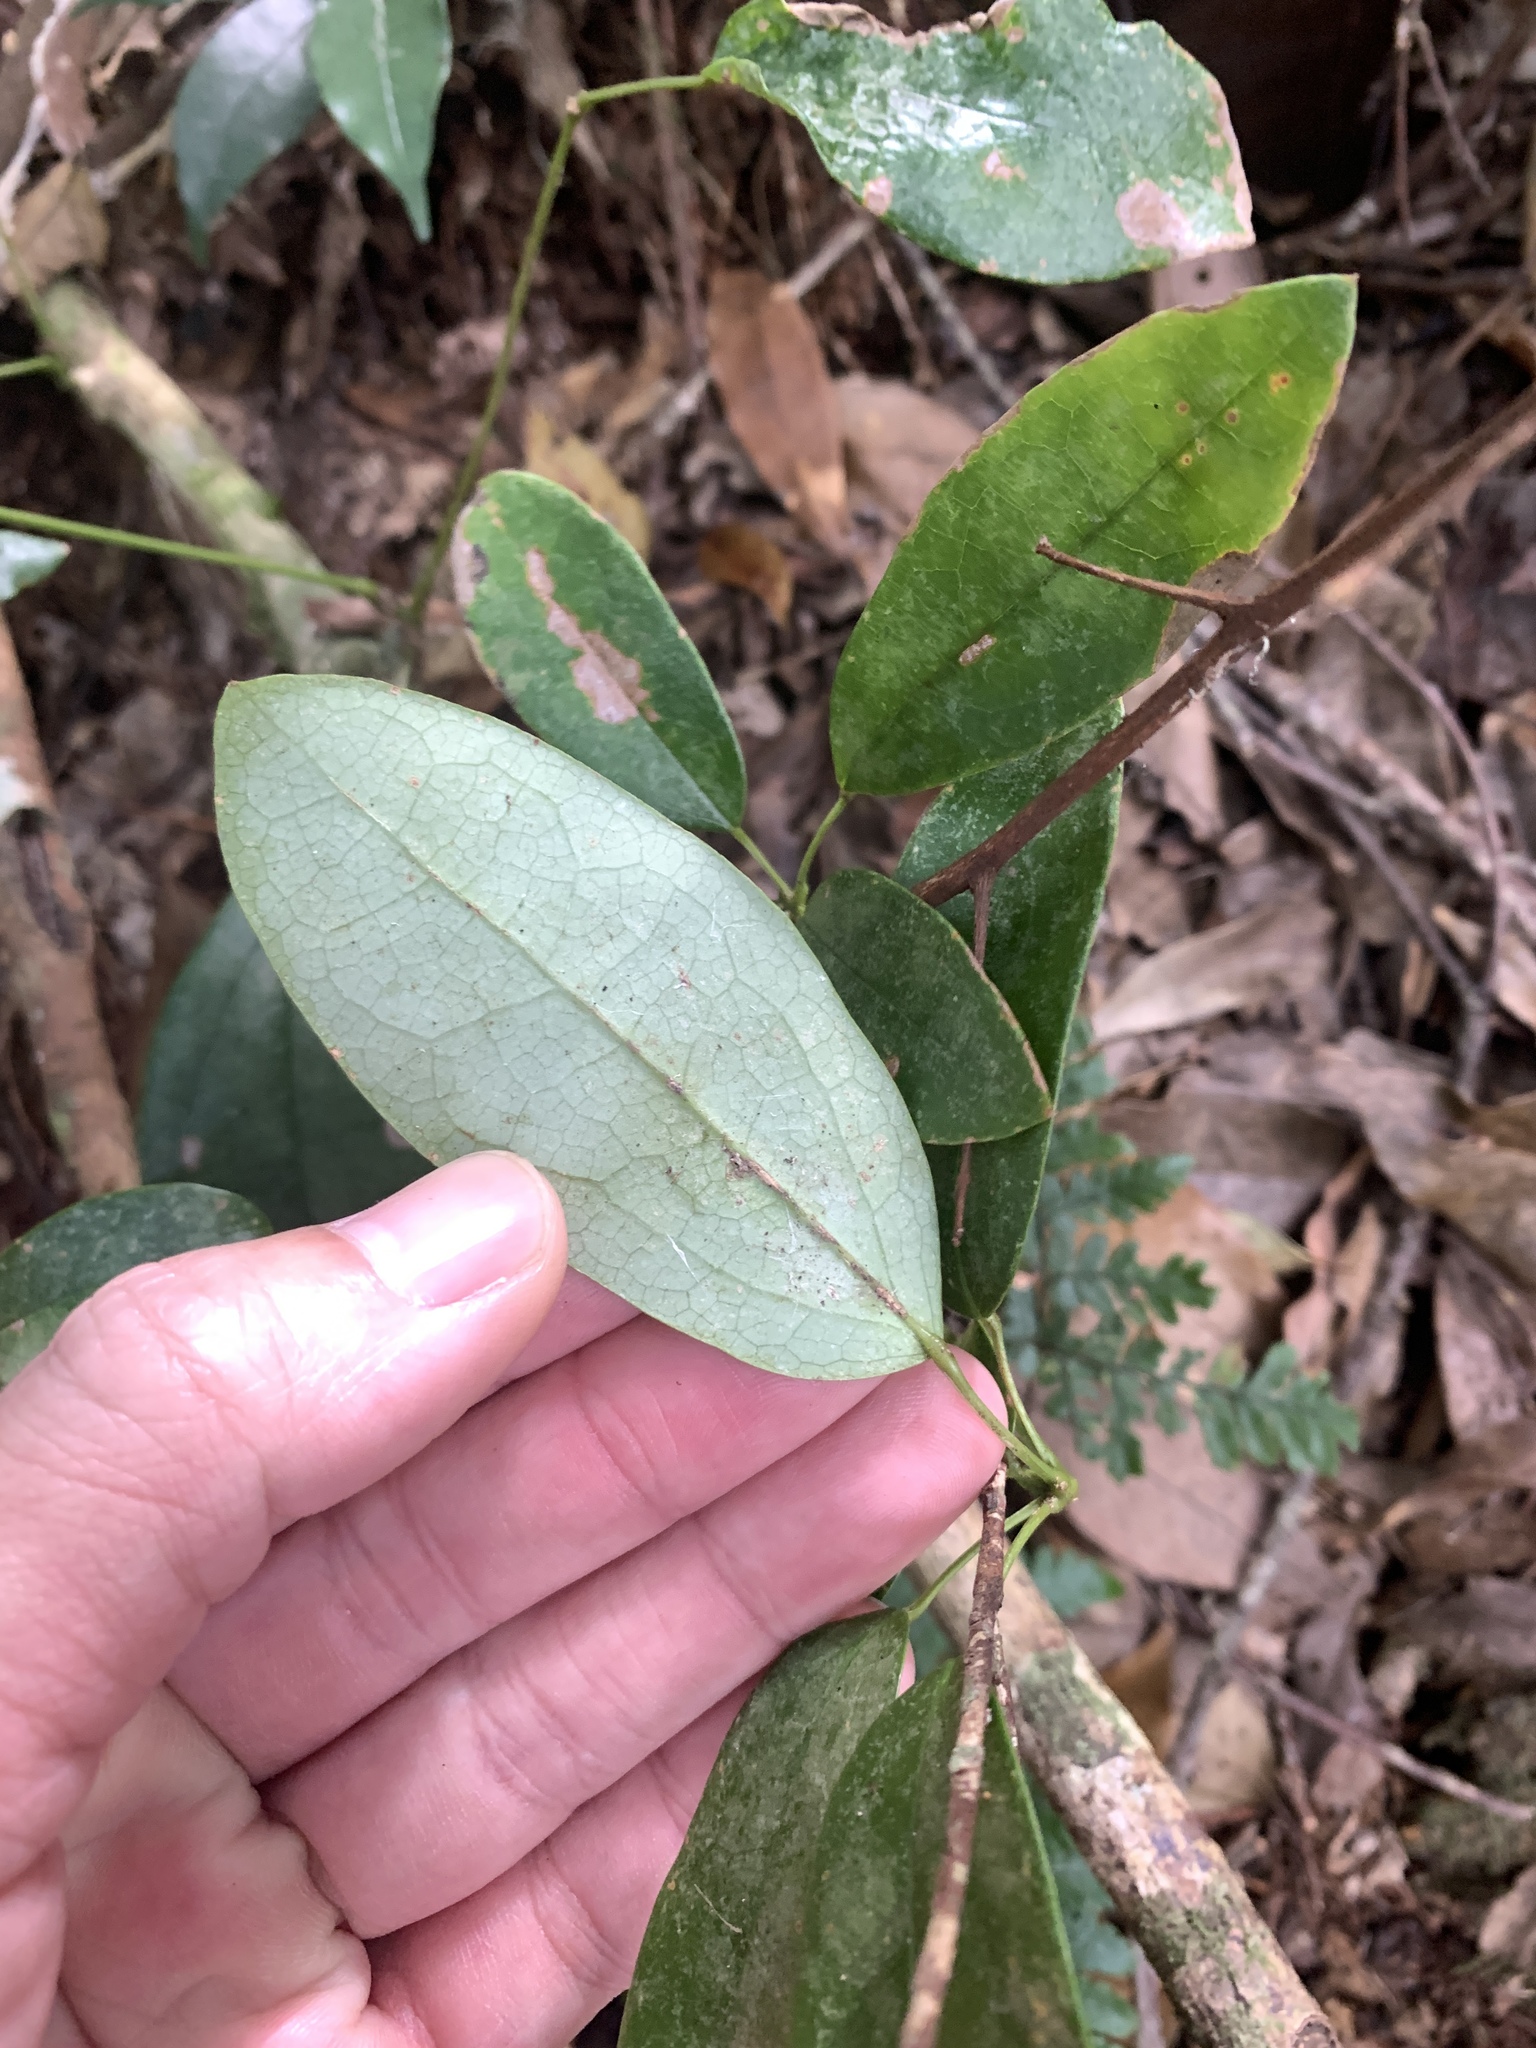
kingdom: Plantae
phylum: Tracheophyta
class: Magnoliopsida
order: Ranunculales
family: Lardizabalaceae
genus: Stauntonia
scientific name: Stauntonia obovata
